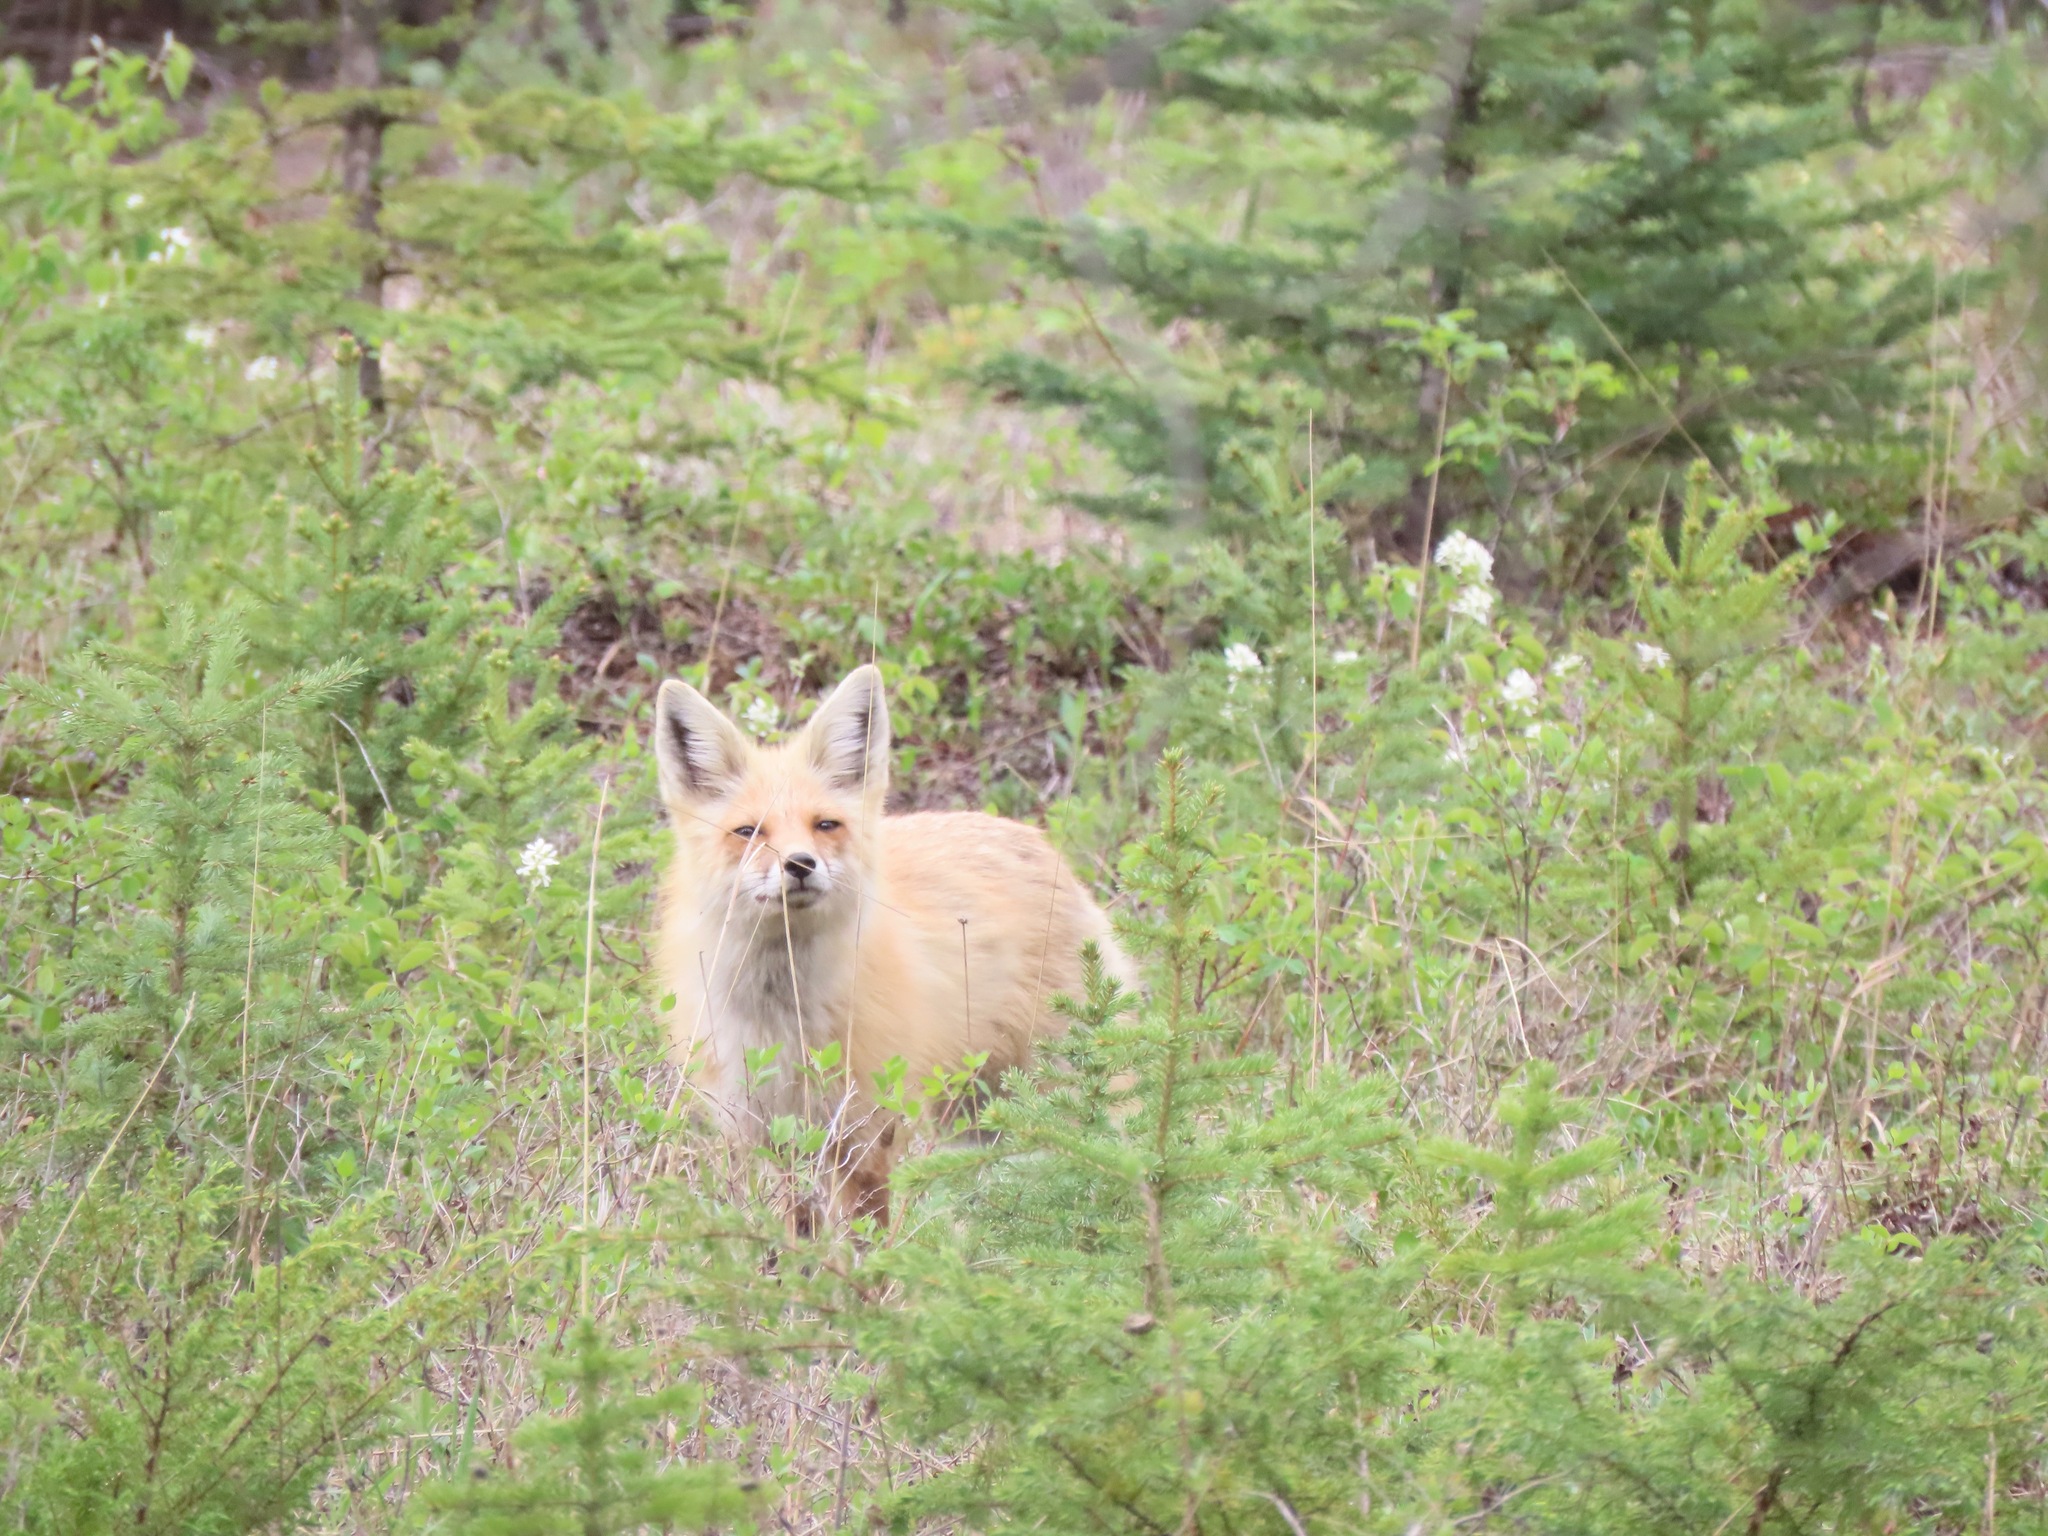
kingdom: Animalia
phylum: Chordata
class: Mammalia
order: Carnivora
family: Canidae
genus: Vulpes
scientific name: Vulpes vulpes
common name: Red fox
